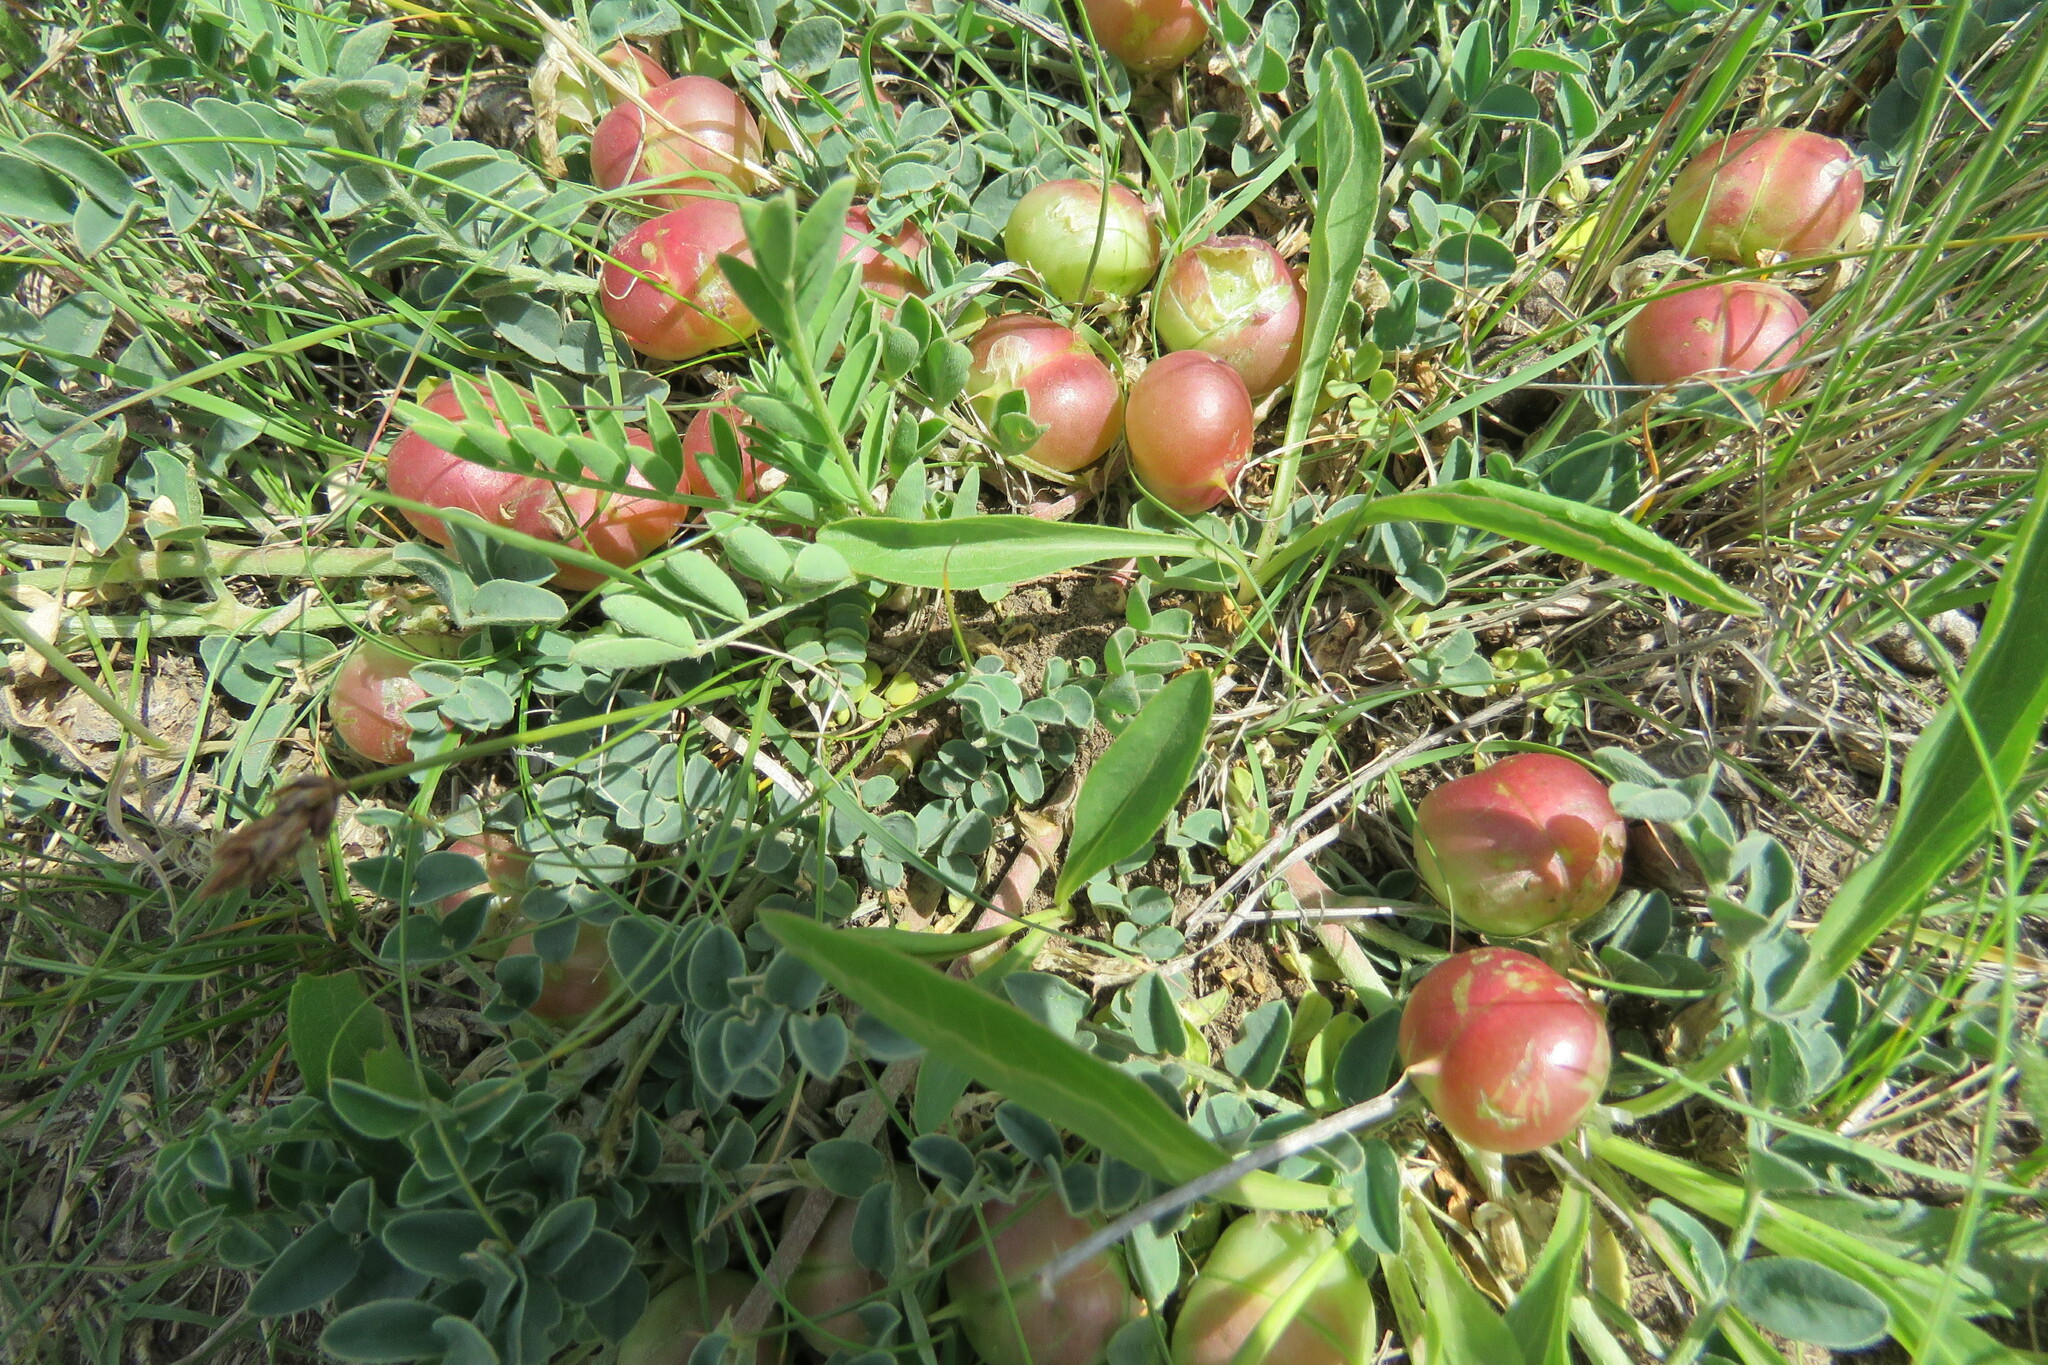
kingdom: Plantae
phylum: Tracheophyta
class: Magnoliopsida
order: Fabales
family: Fabaceae
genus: Astragalus
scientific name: Astragalus crassicarpus
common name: Ground-plum milk-vetch
